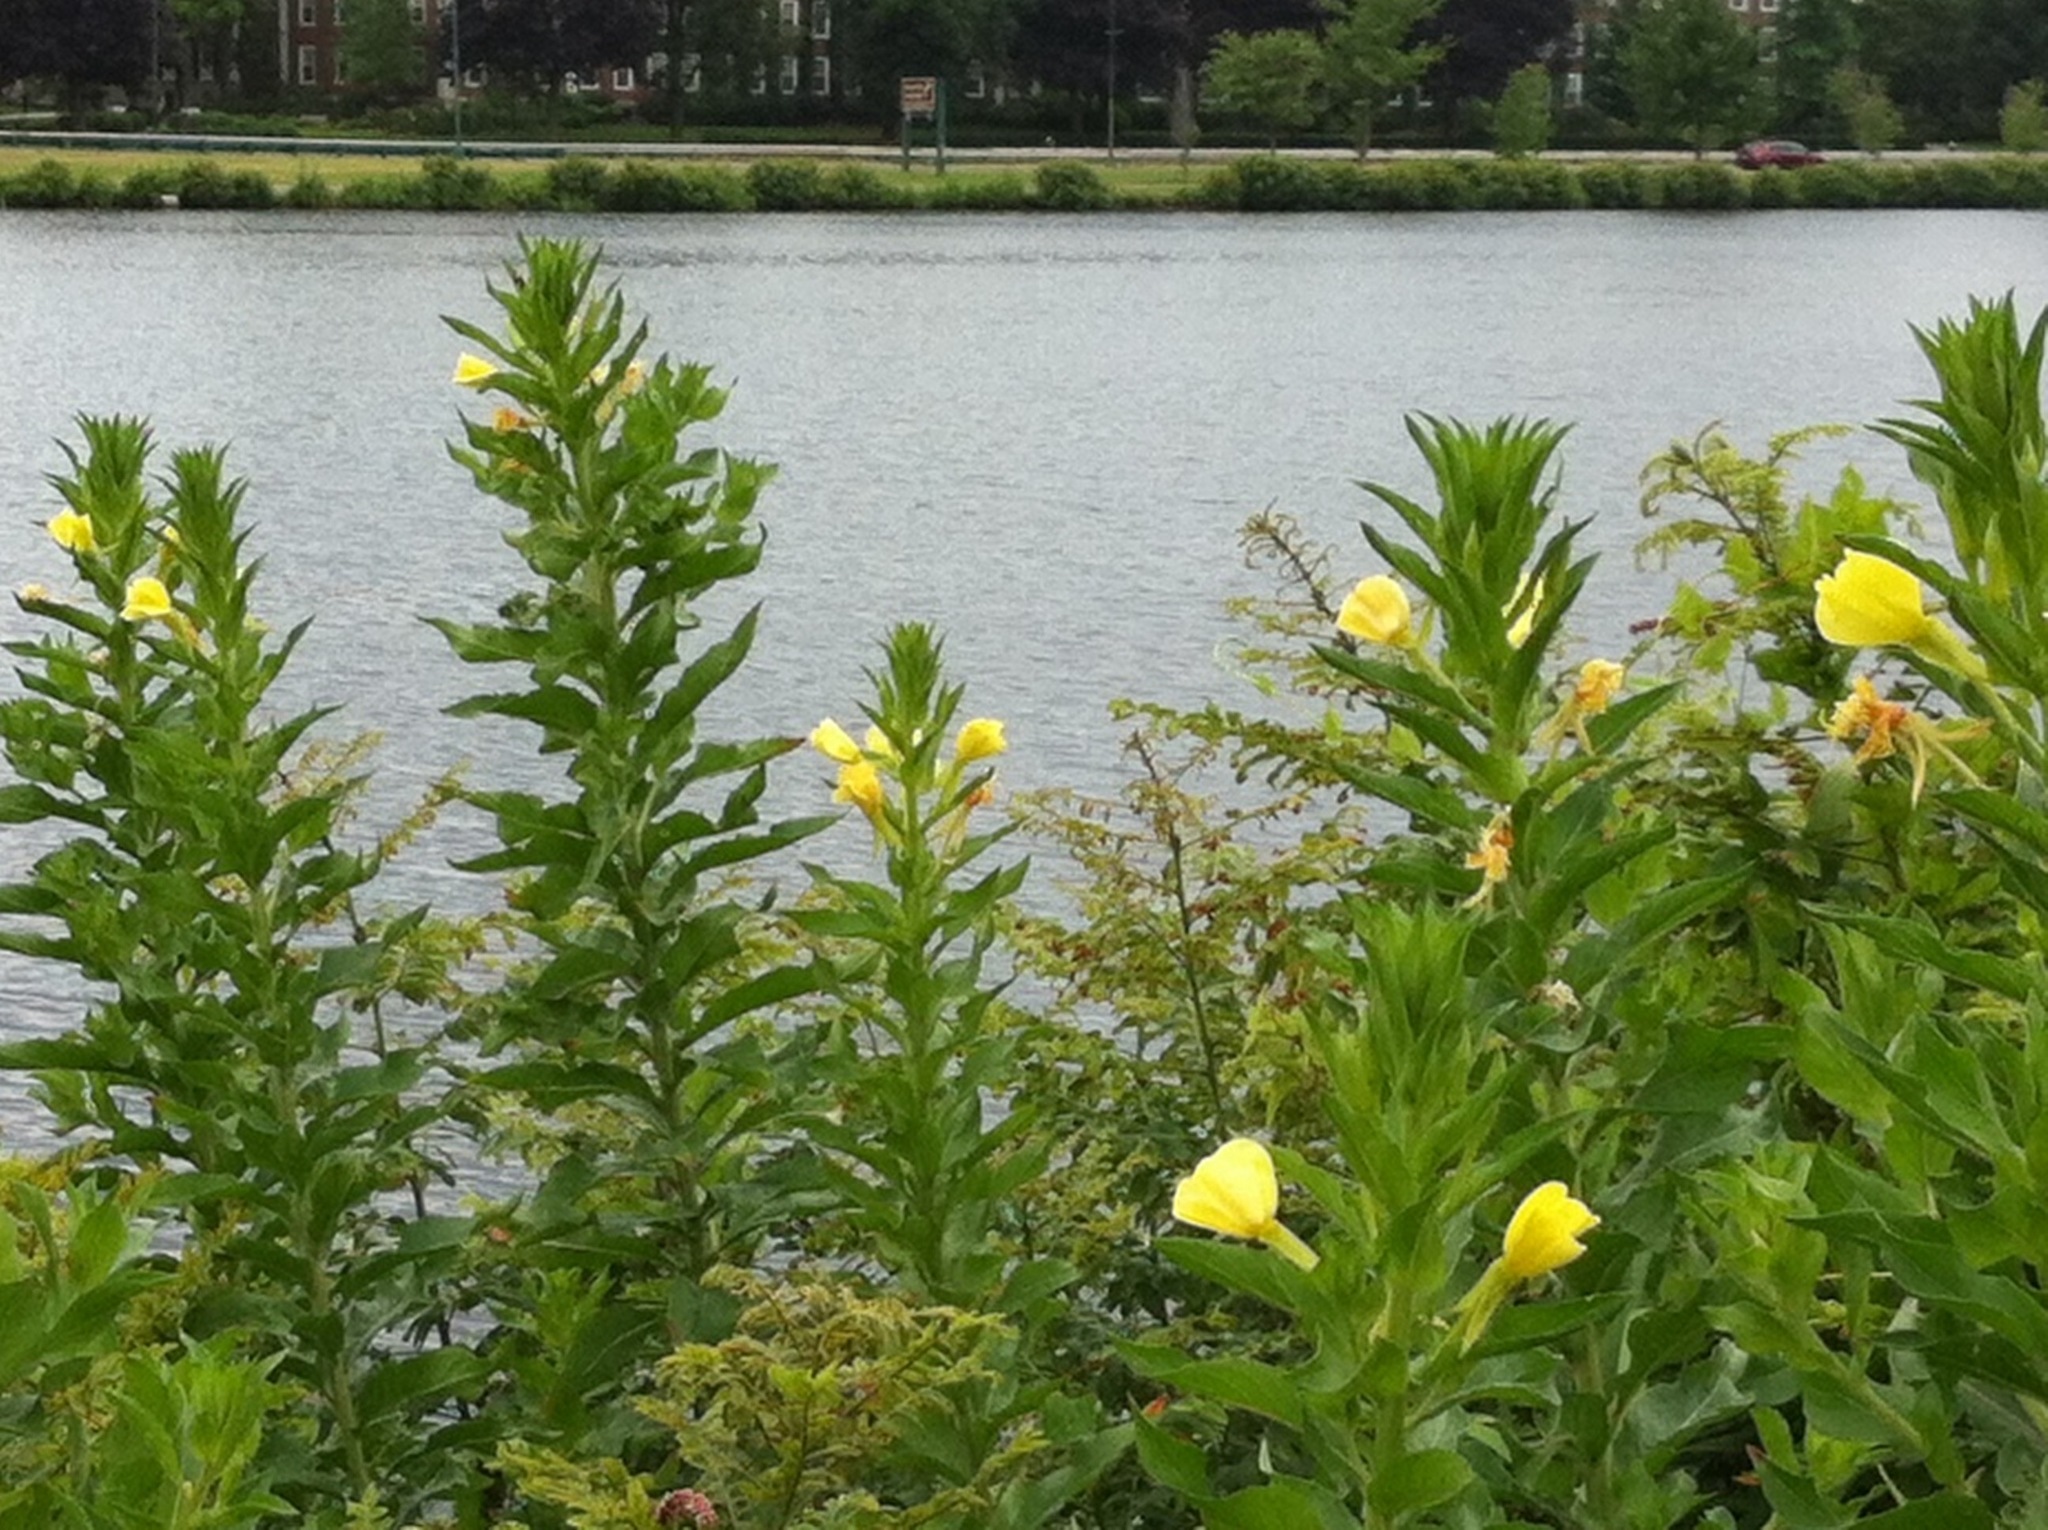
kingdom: Plantae
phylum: Tracheophyta
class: Magnoliopsida
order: Myrtales
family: Onagraceae
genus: Oenothera
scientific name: Oenothera biennis
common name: Common evening-primrose
